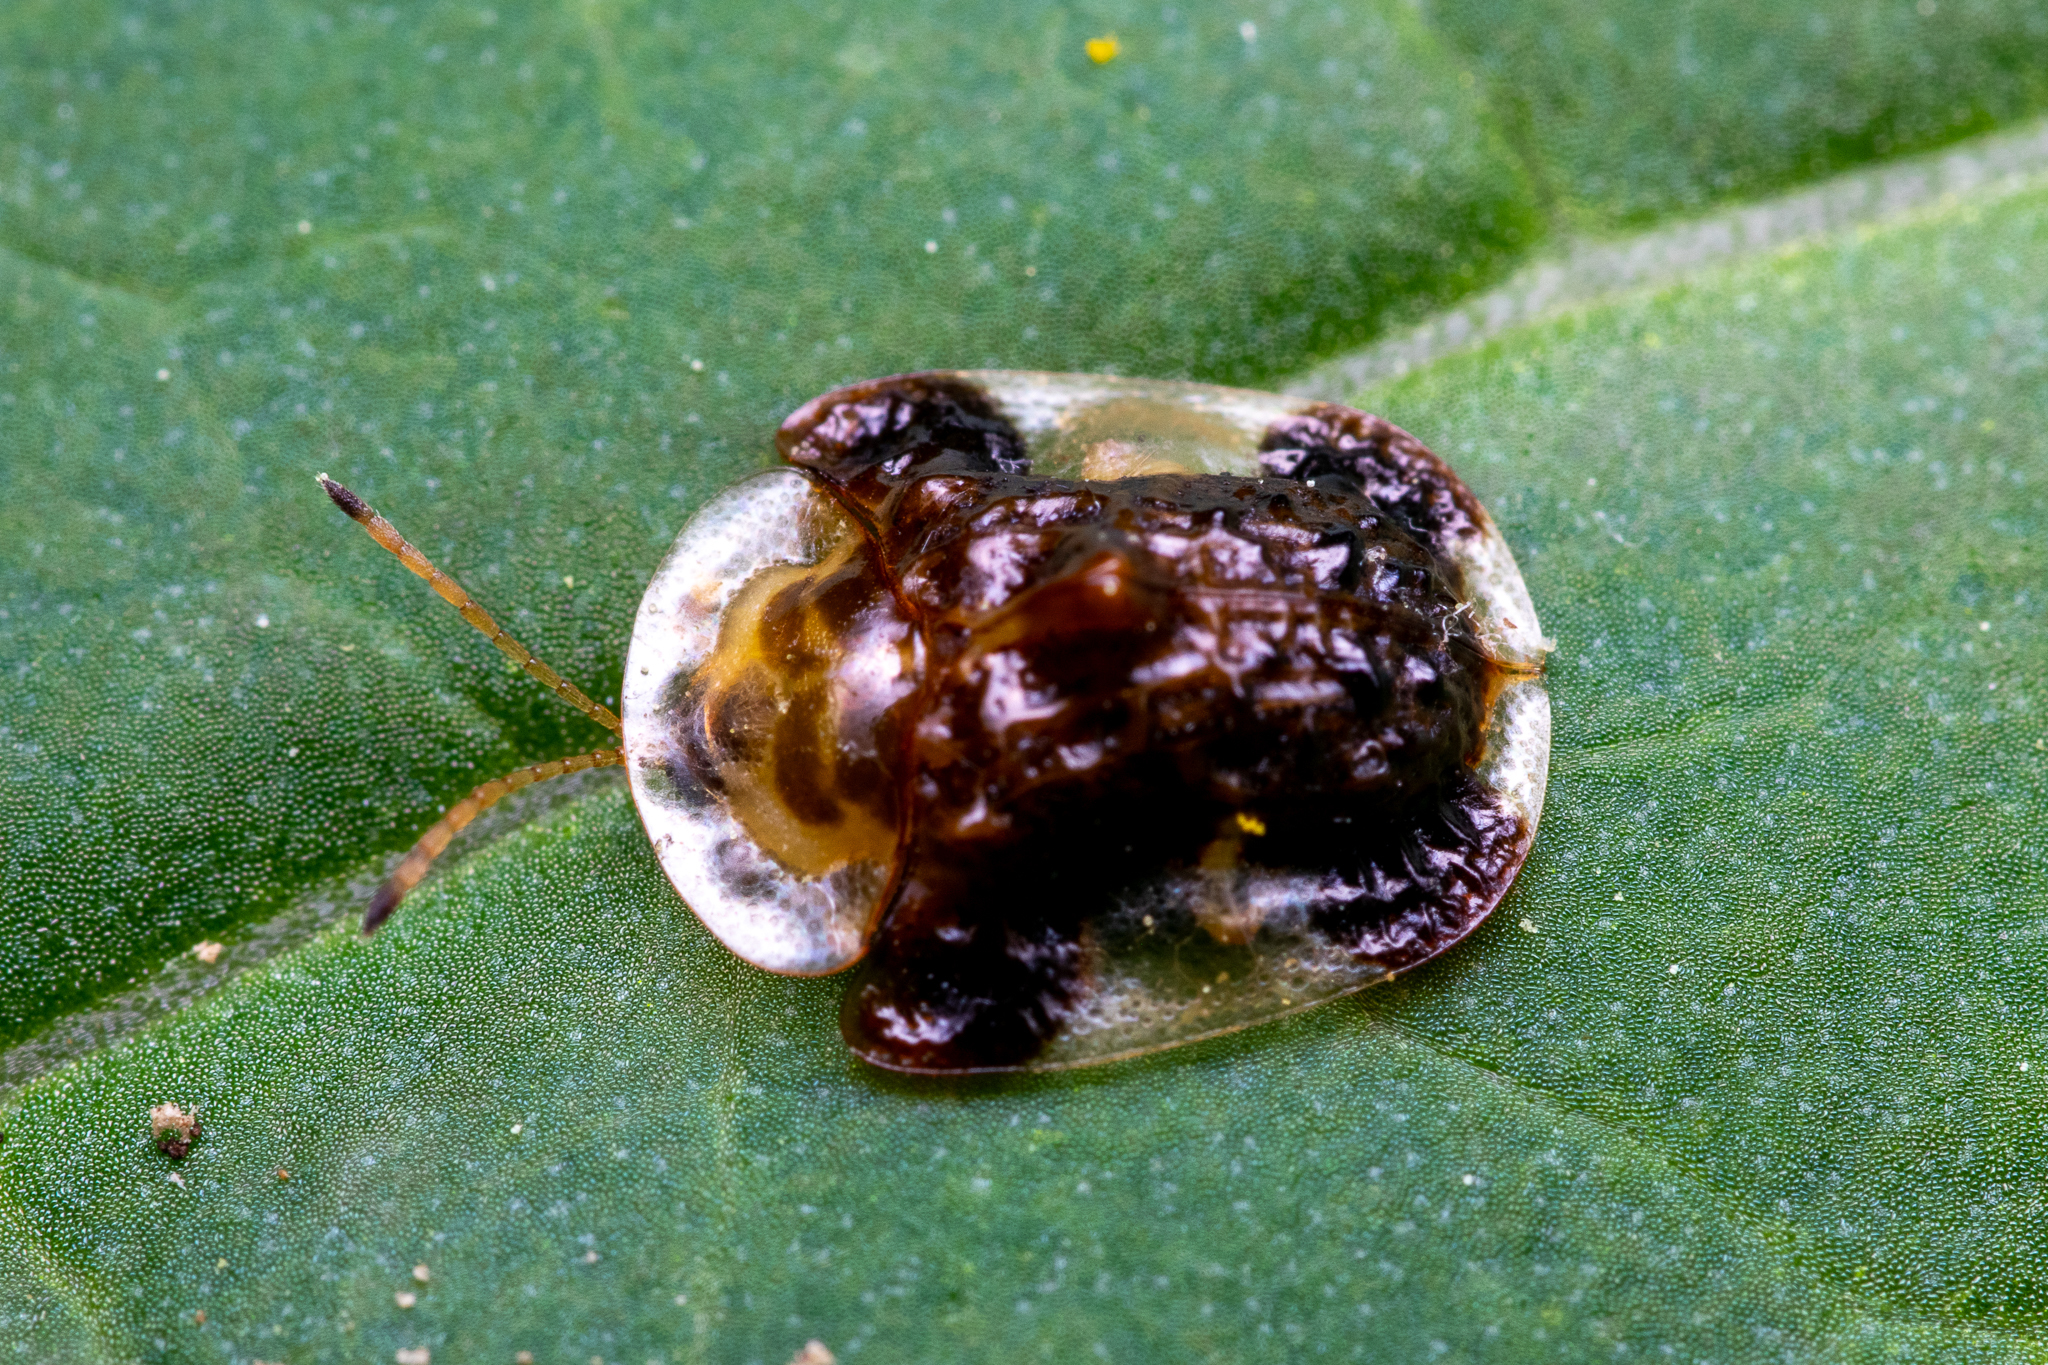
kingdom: Animalia
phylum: Arthropoda
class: Insecta
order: Coleoptera
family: Chrysomelidae
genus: Helocassis
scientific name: Helocassis clavata
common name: Clavate tortoise beetle
